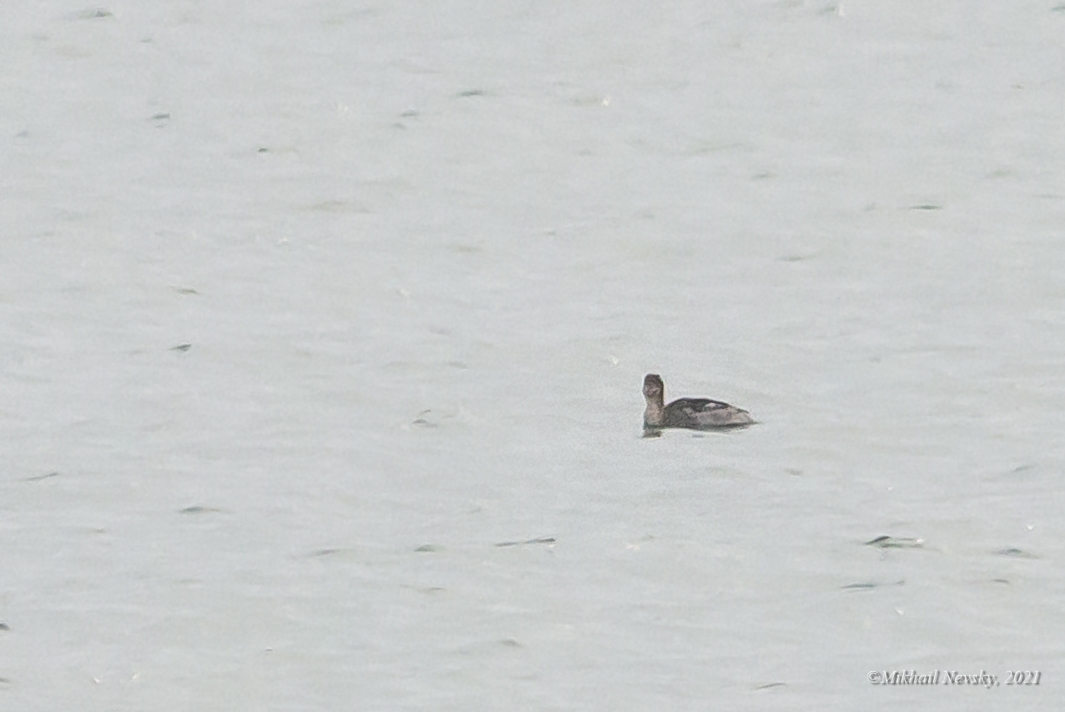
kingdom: Animalia
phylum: Chordata
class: Aves
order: Anseriformes
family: Anatidae
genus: Mergus
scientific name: Mergus serrator
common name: Red-breasted merganser
